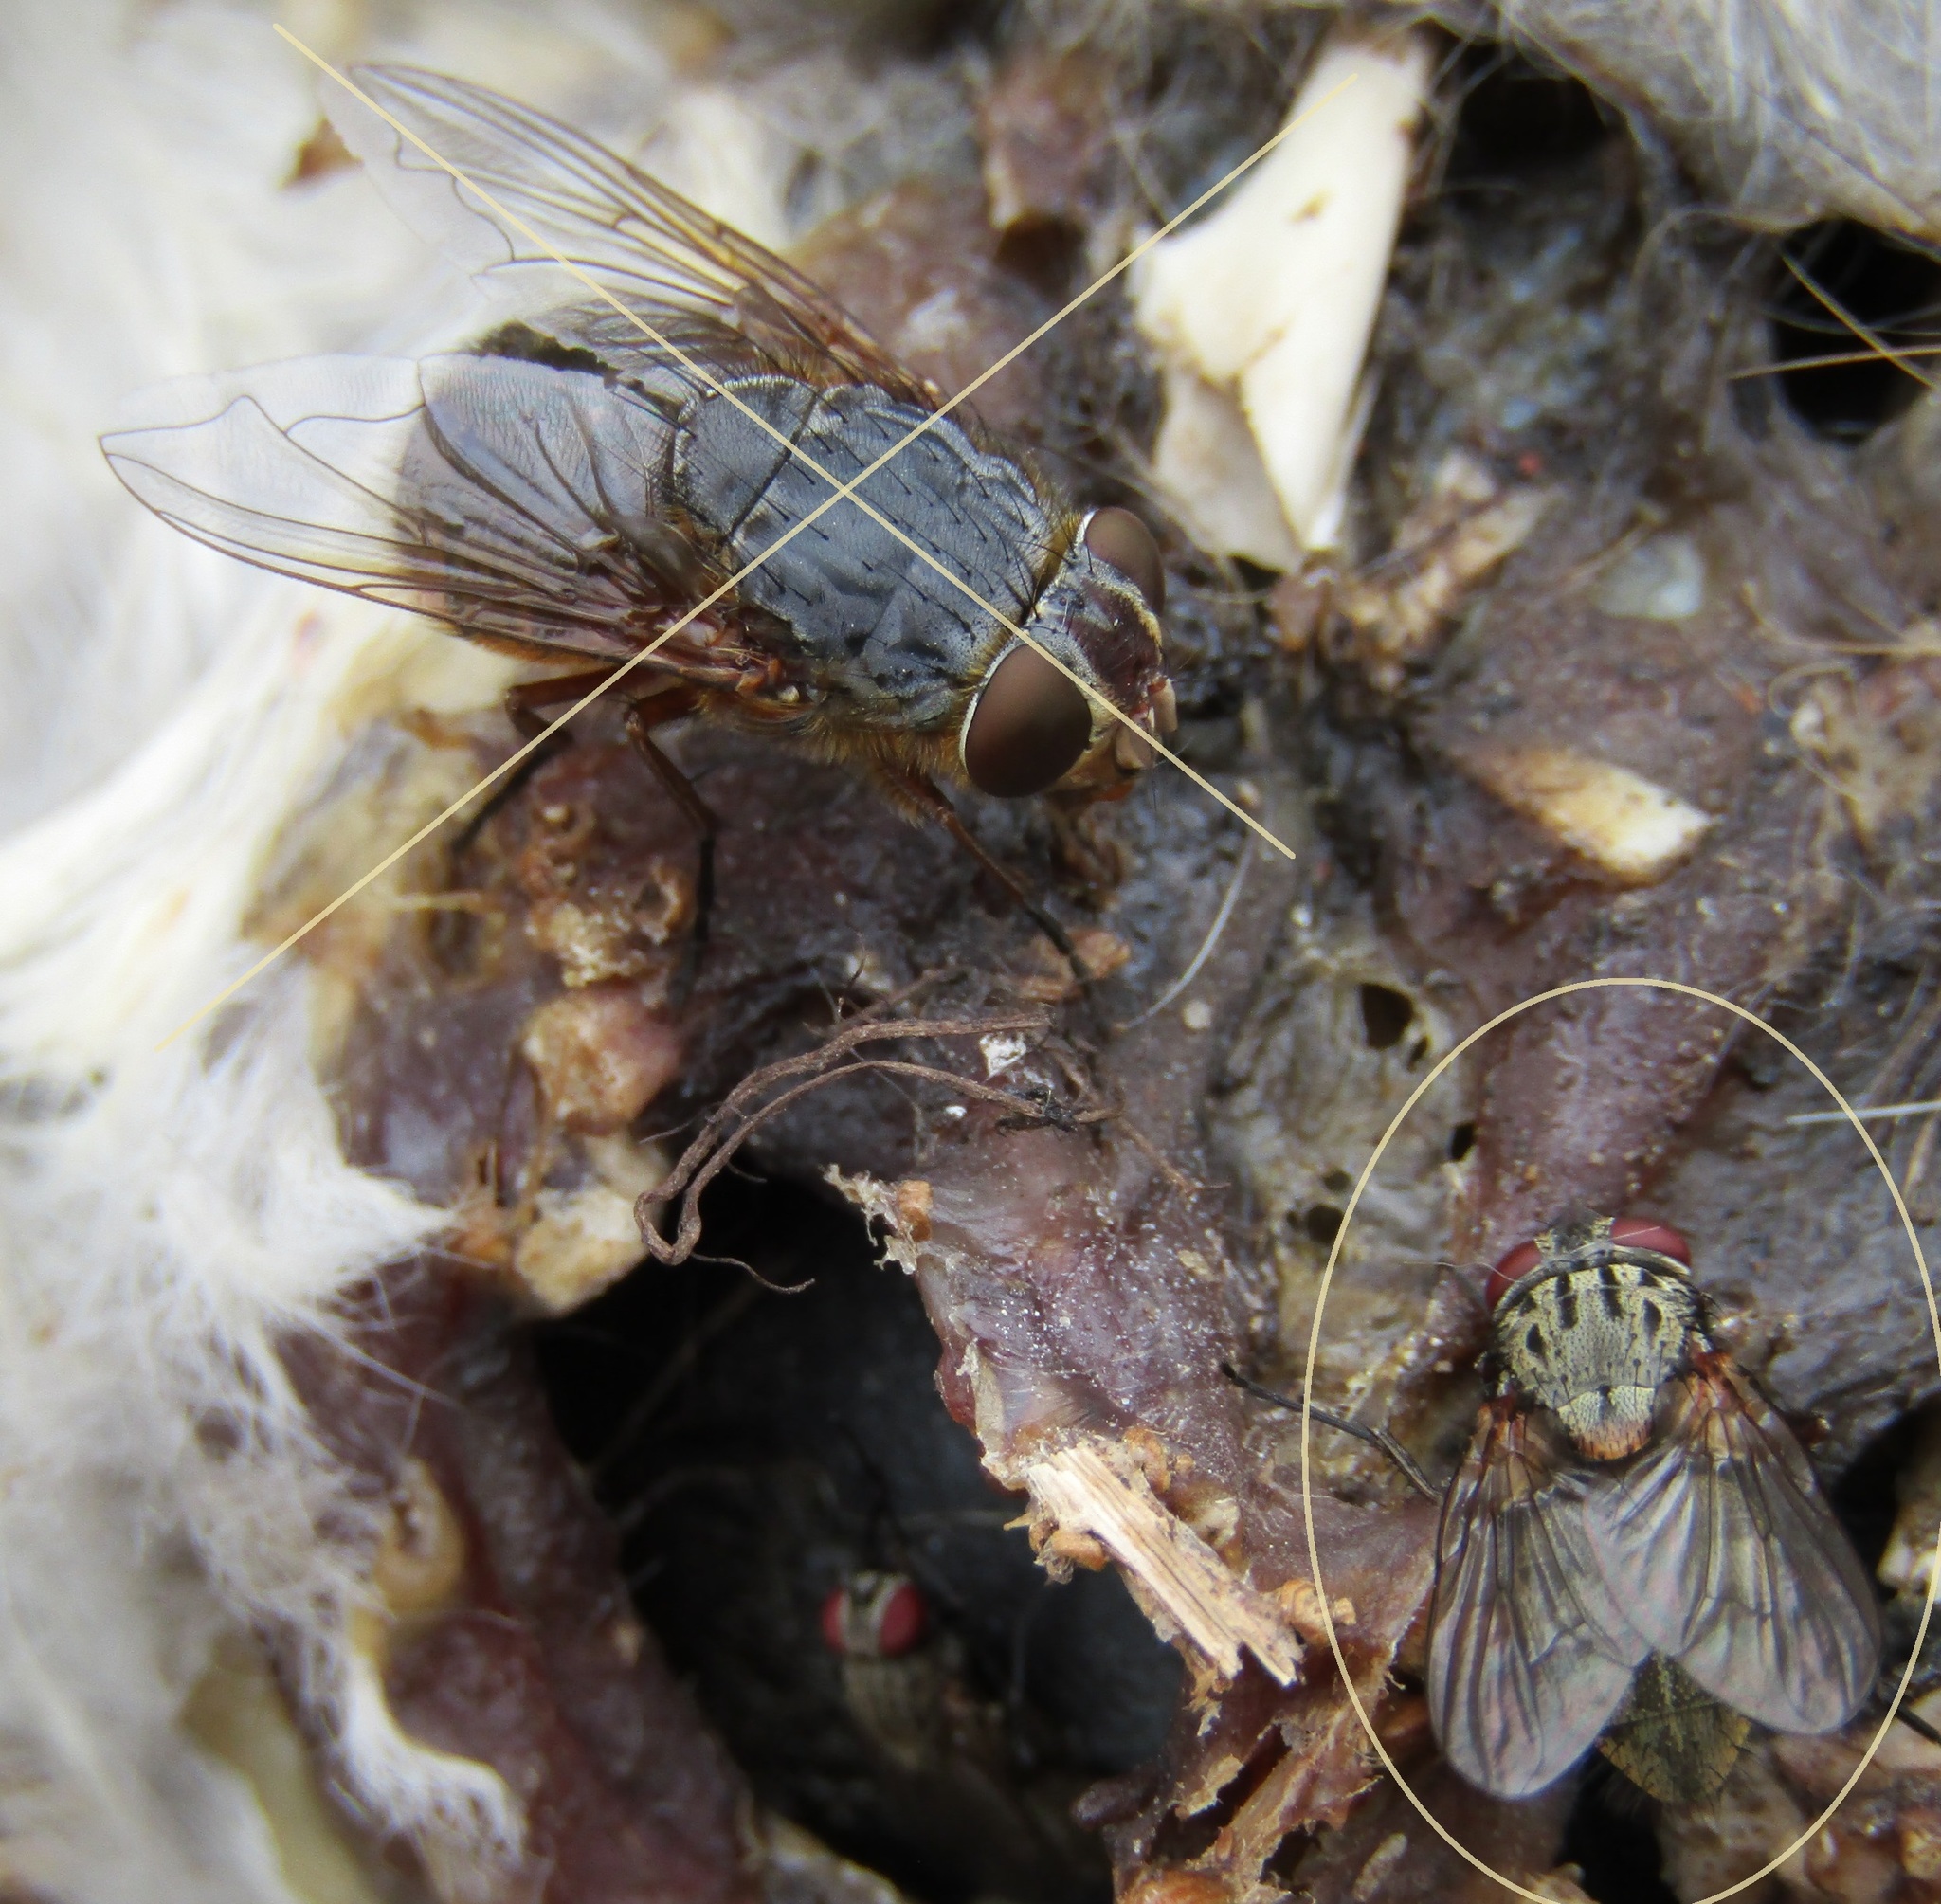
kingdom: Animalia
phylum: Arthropoda
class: Insecta
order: Diptera
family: Muscidae
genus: Muscina
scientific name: Muscina stabulans
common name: False stable fly
